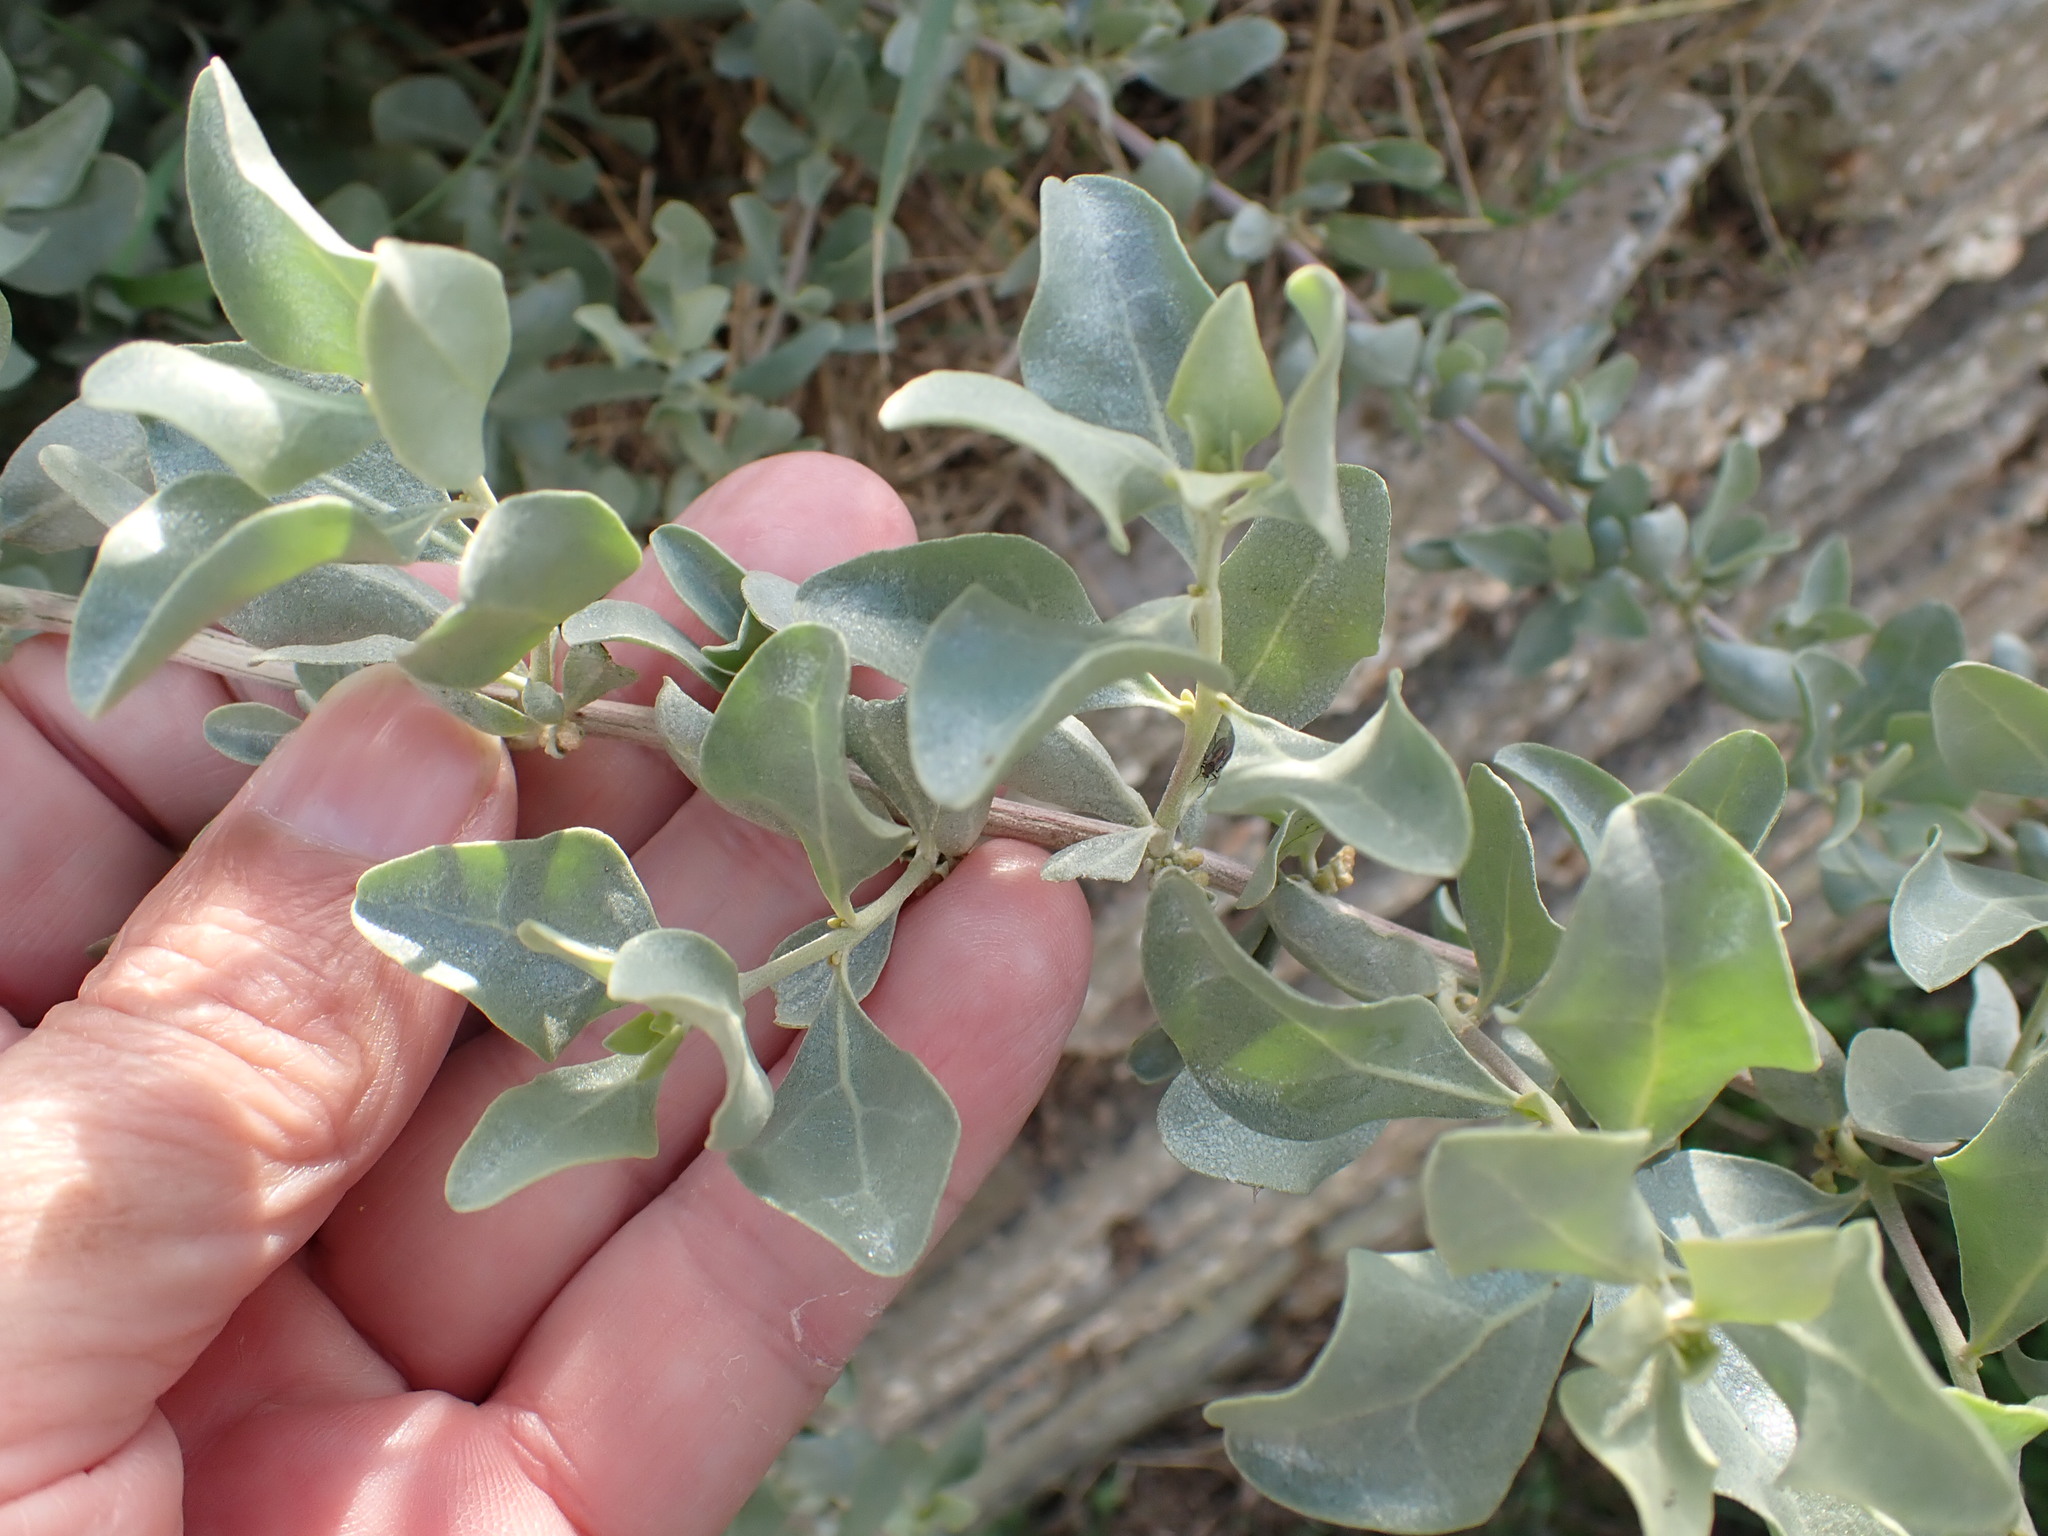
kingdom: Plantae
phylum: Tracheophyta
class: Magnoliopsida
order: Caryophyllales
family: Amaranthaceae
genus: Atriplex
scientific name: Atriplex halimus
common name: Shrubby orache
